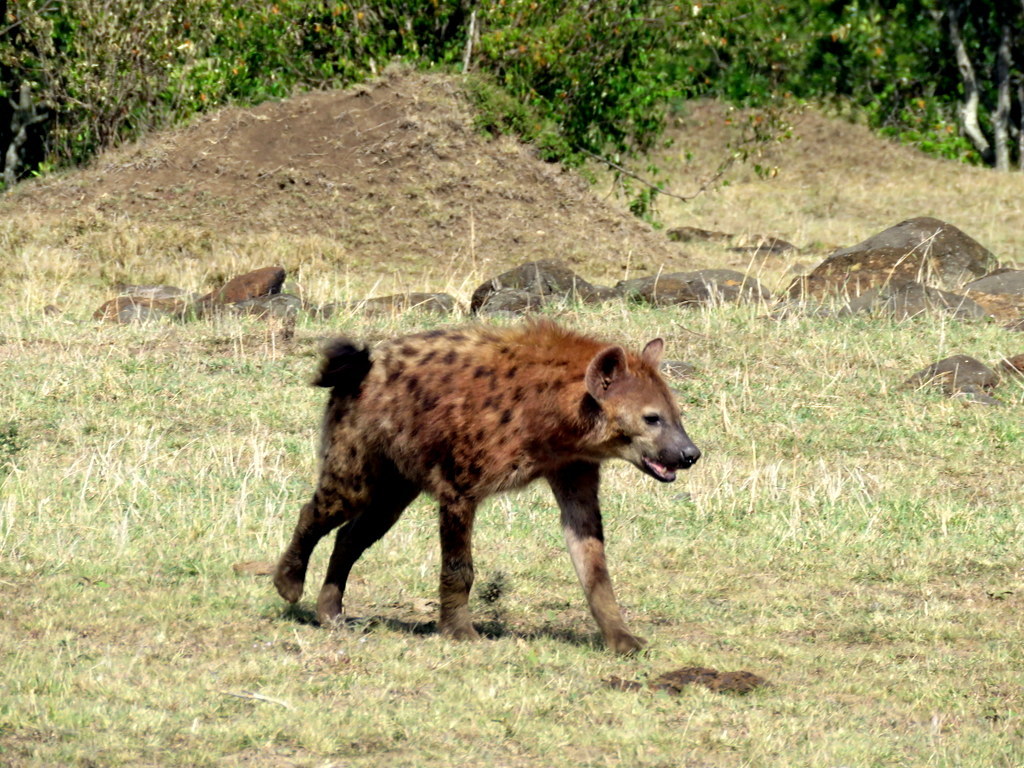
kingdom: Animalia
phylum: Chordata
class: Mammalia
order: Carnivora
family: Hyaenidae
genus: Crocuta
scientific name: Crocuta crocuta
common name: Spotted hyaena
